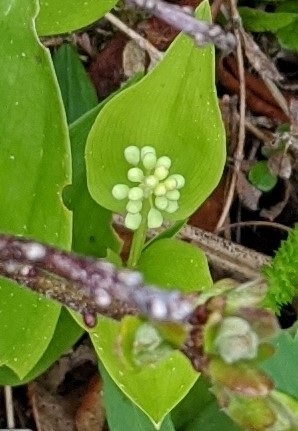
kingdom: Plantae
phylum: Tracheophyta
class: Liliopsida
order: Asparagales
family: Asparagaceae
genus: Maianthemum
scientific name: Maianthemum canadense
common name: False lily-of-the-valley
